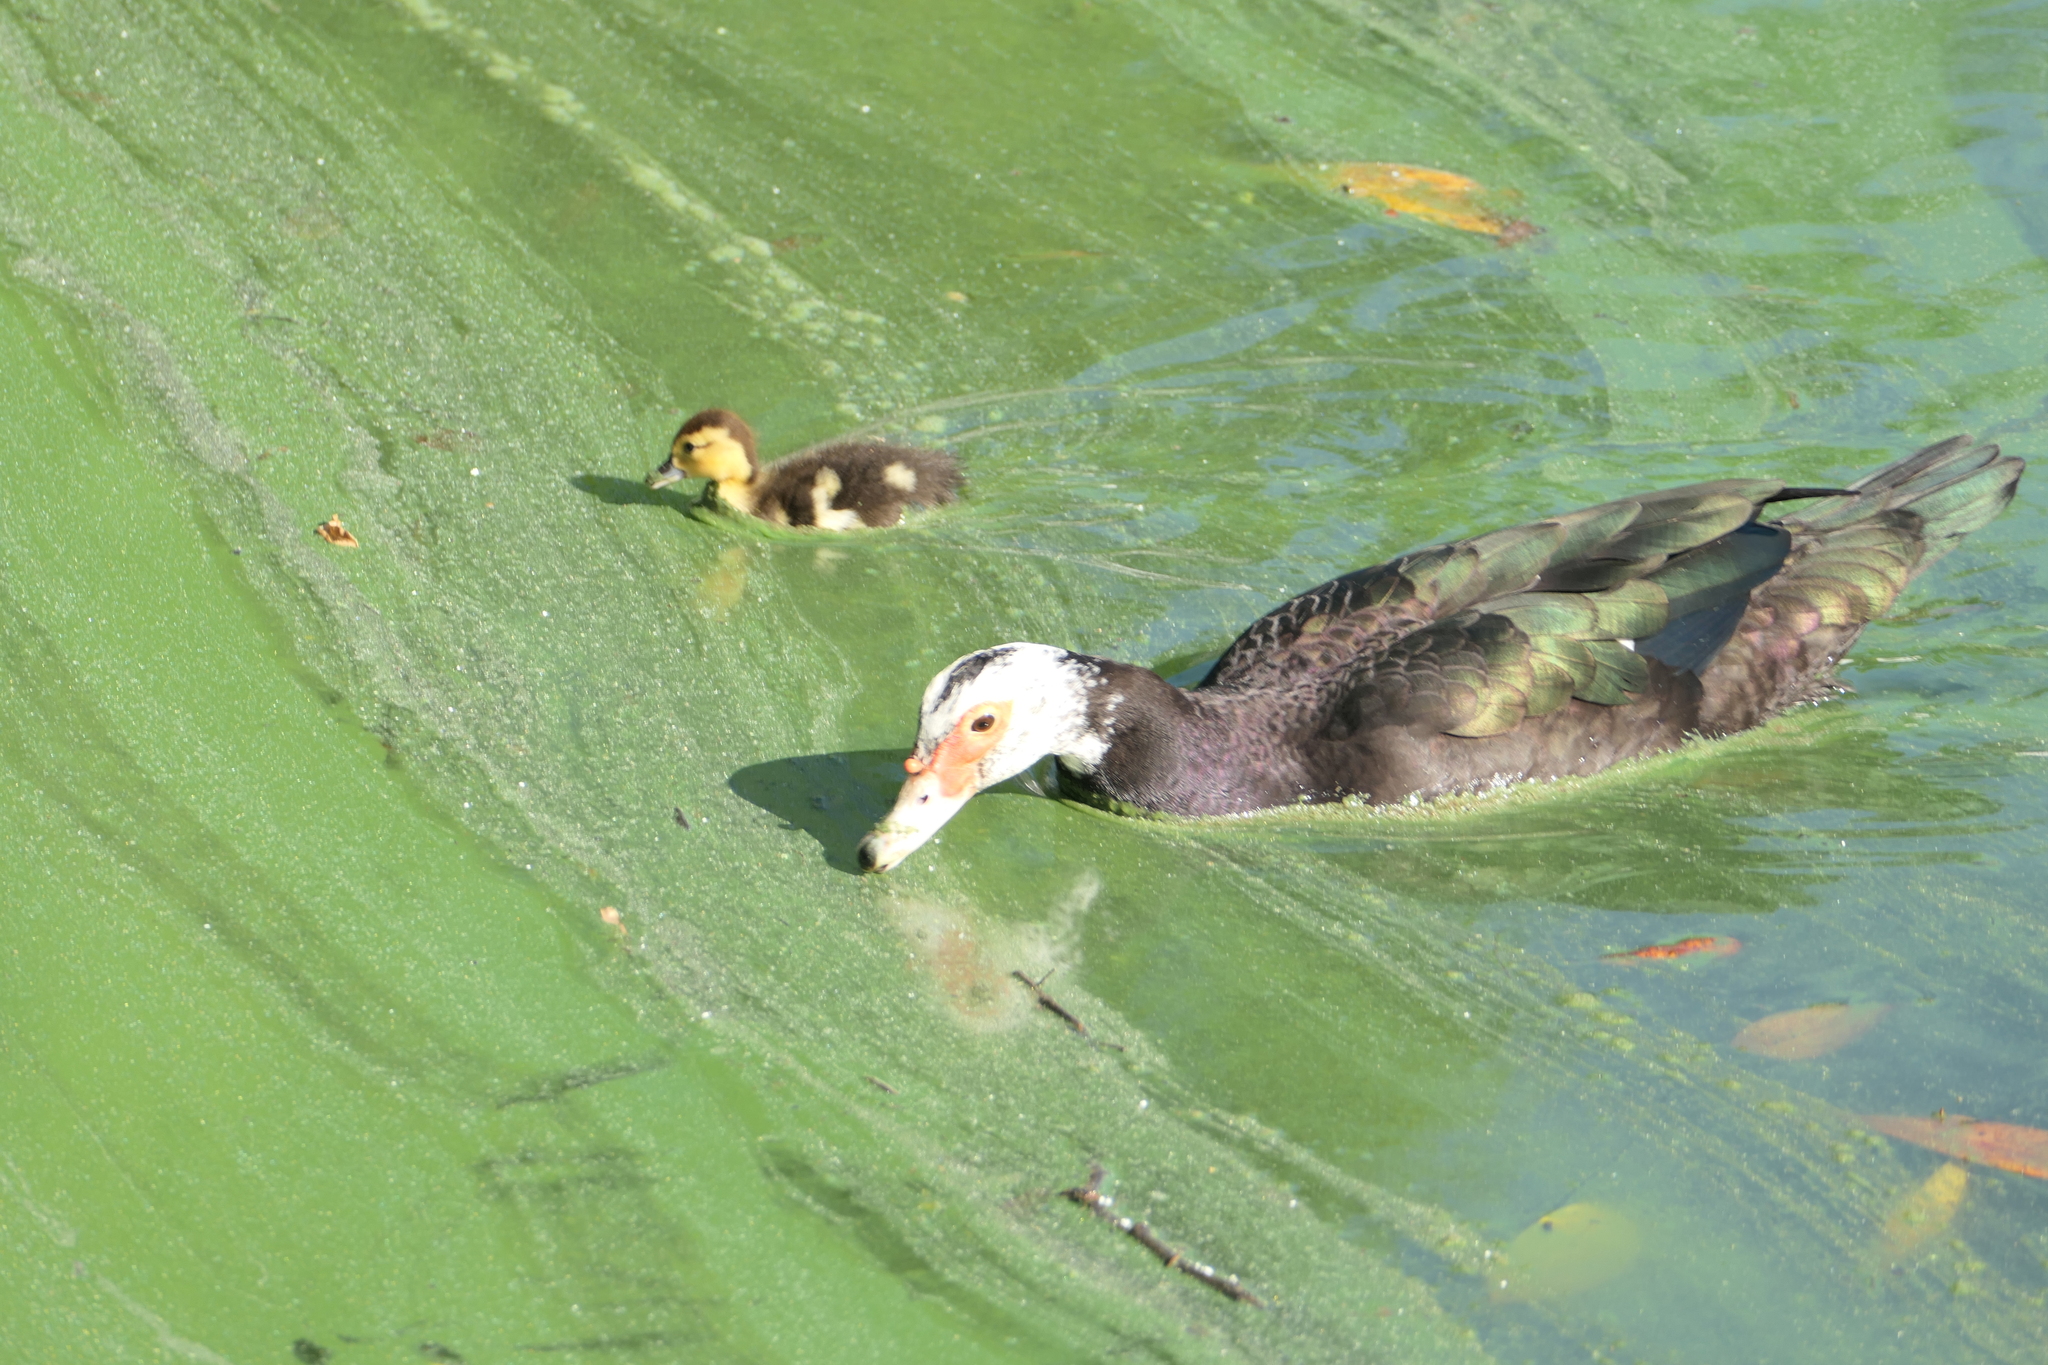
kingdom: Animalia
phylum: Chordata
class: Aves
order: Anseriformes
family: Anatidae
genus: Cairina
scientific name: Cairina moschata
